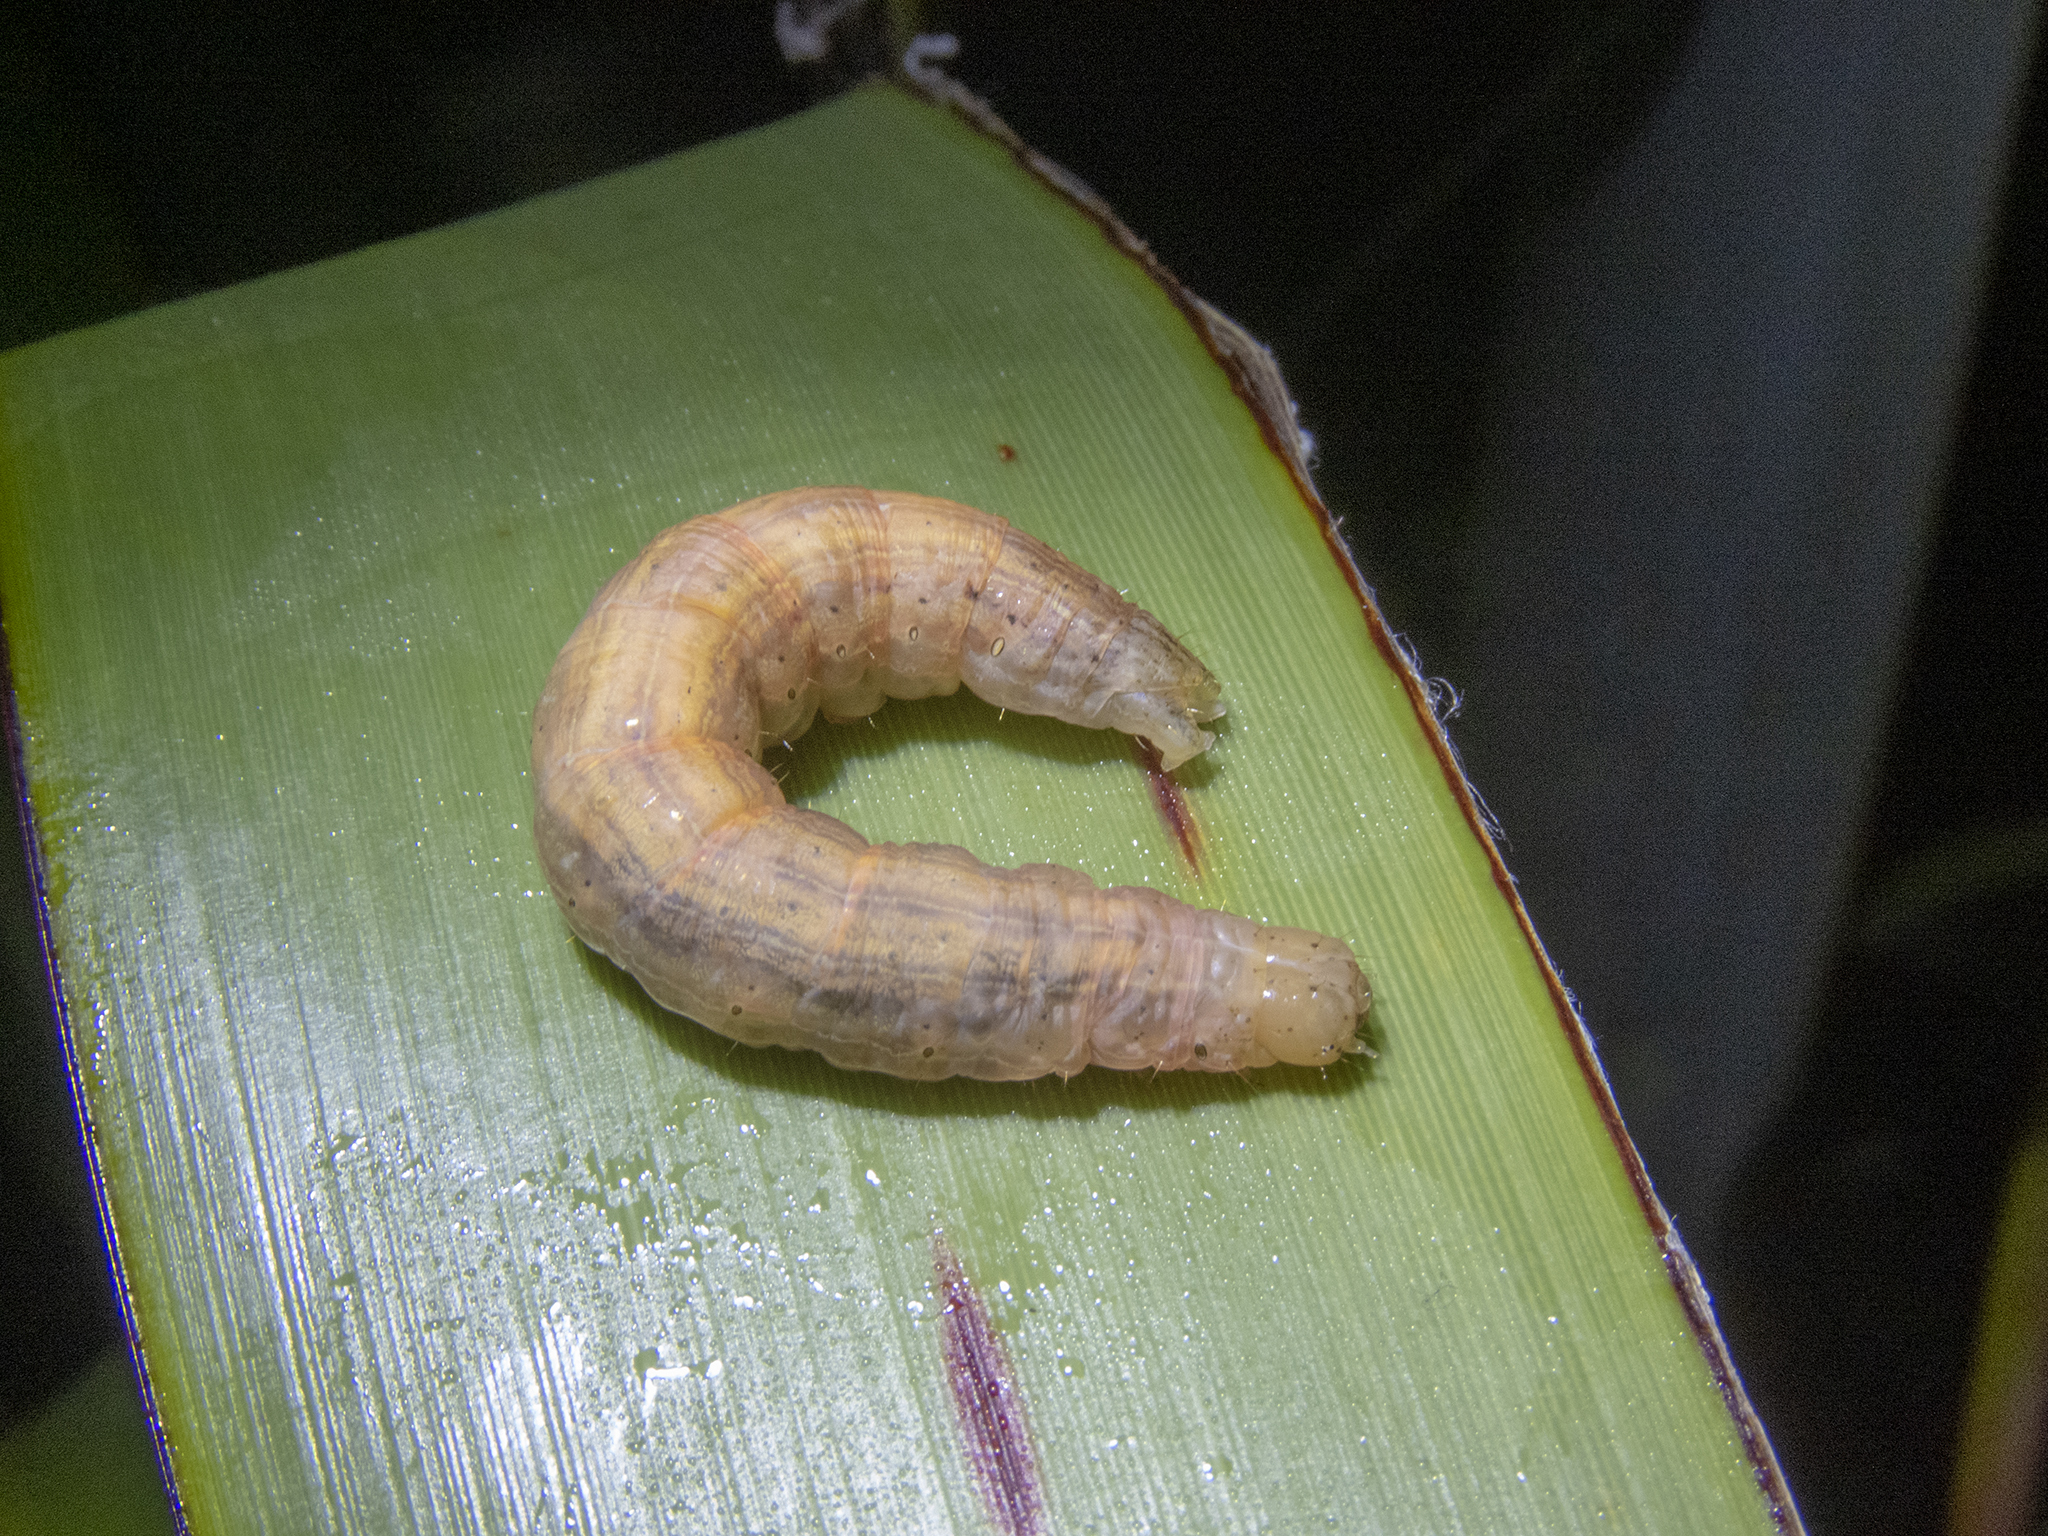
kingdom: Animalia
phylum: Arthropoda
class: Insecta
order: Lepidoptera
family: Noctuidae
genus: Ichneutica
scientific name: Ichneutica
